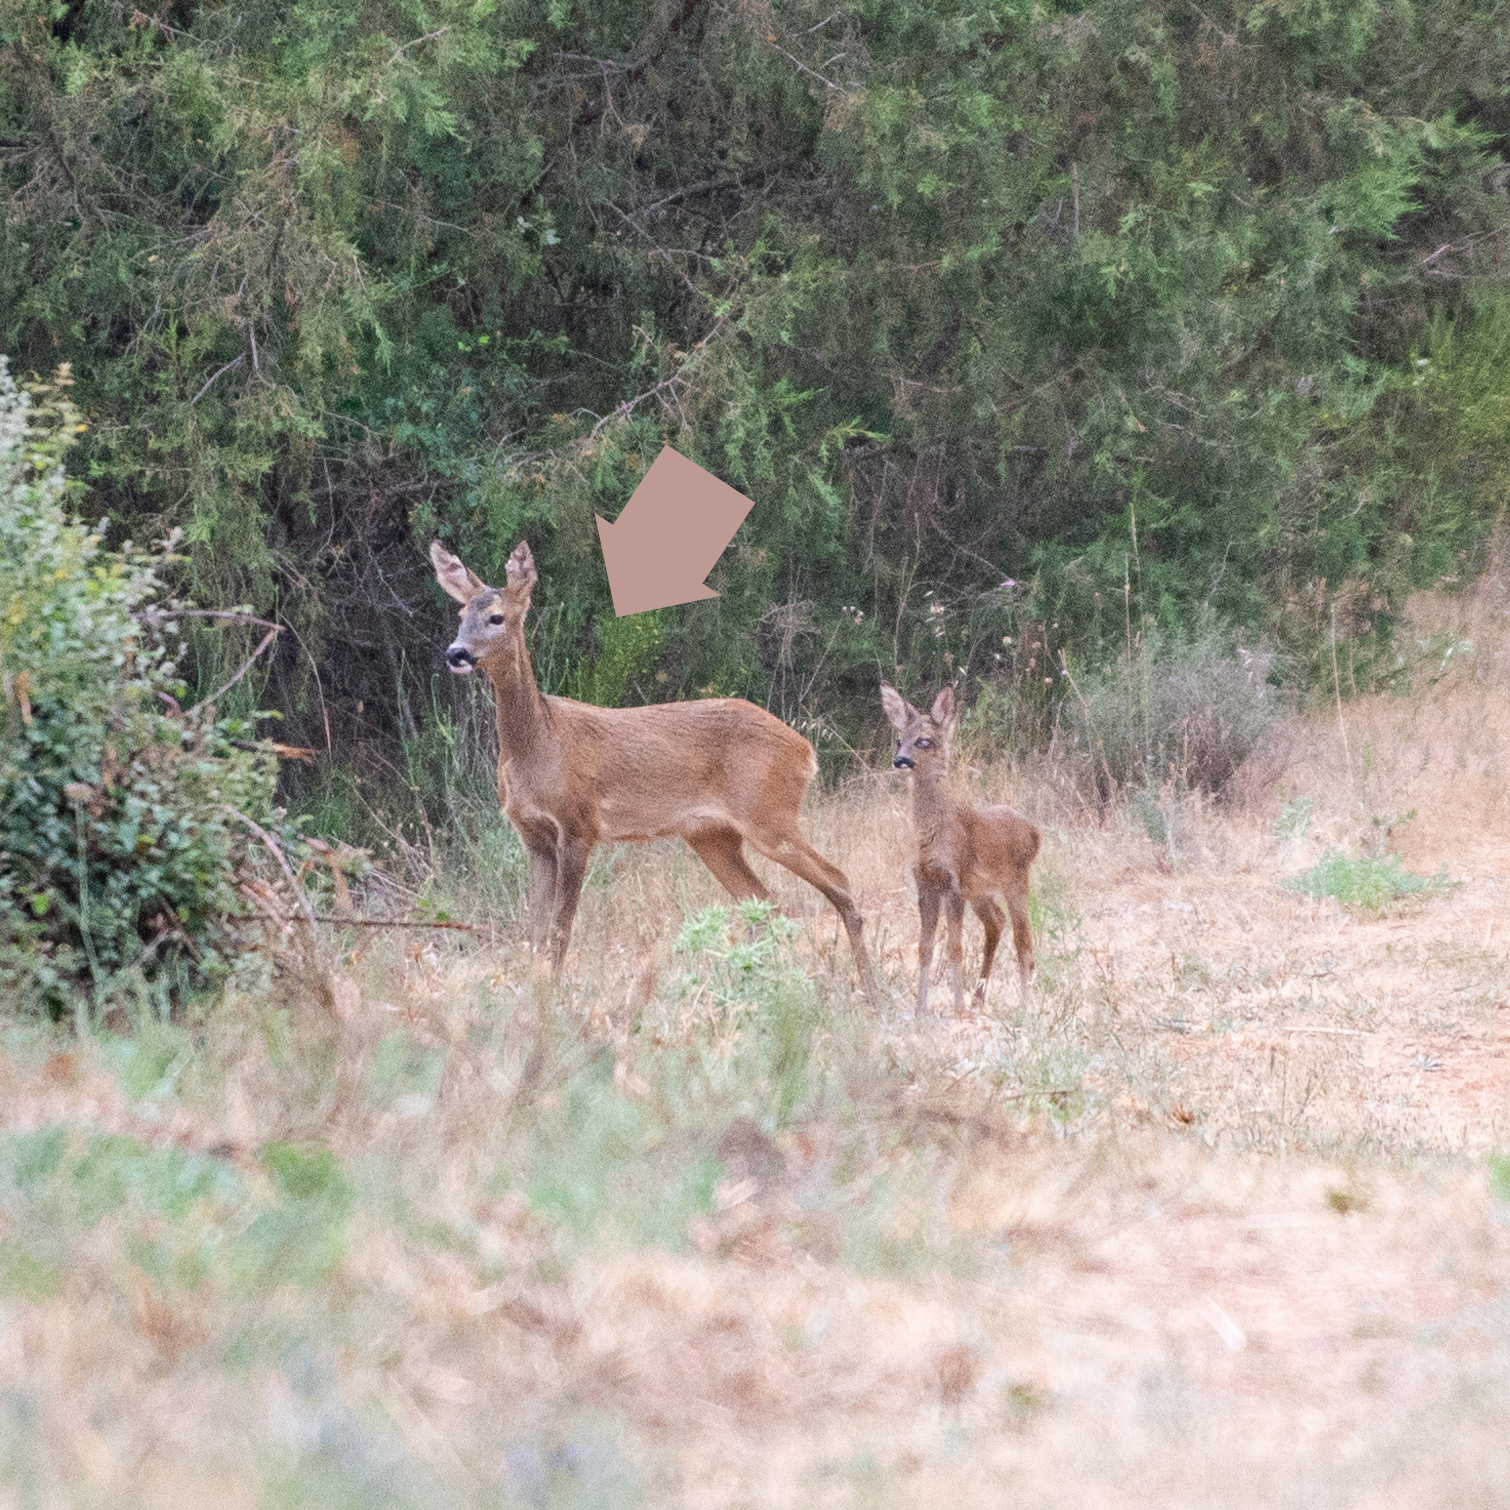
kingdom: Animalia
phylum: Chordata
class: Mammalia
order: Artiodactyla
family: Cervidae
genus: Capreolus
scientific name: Capreolus capreolus
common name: Western roe deer
